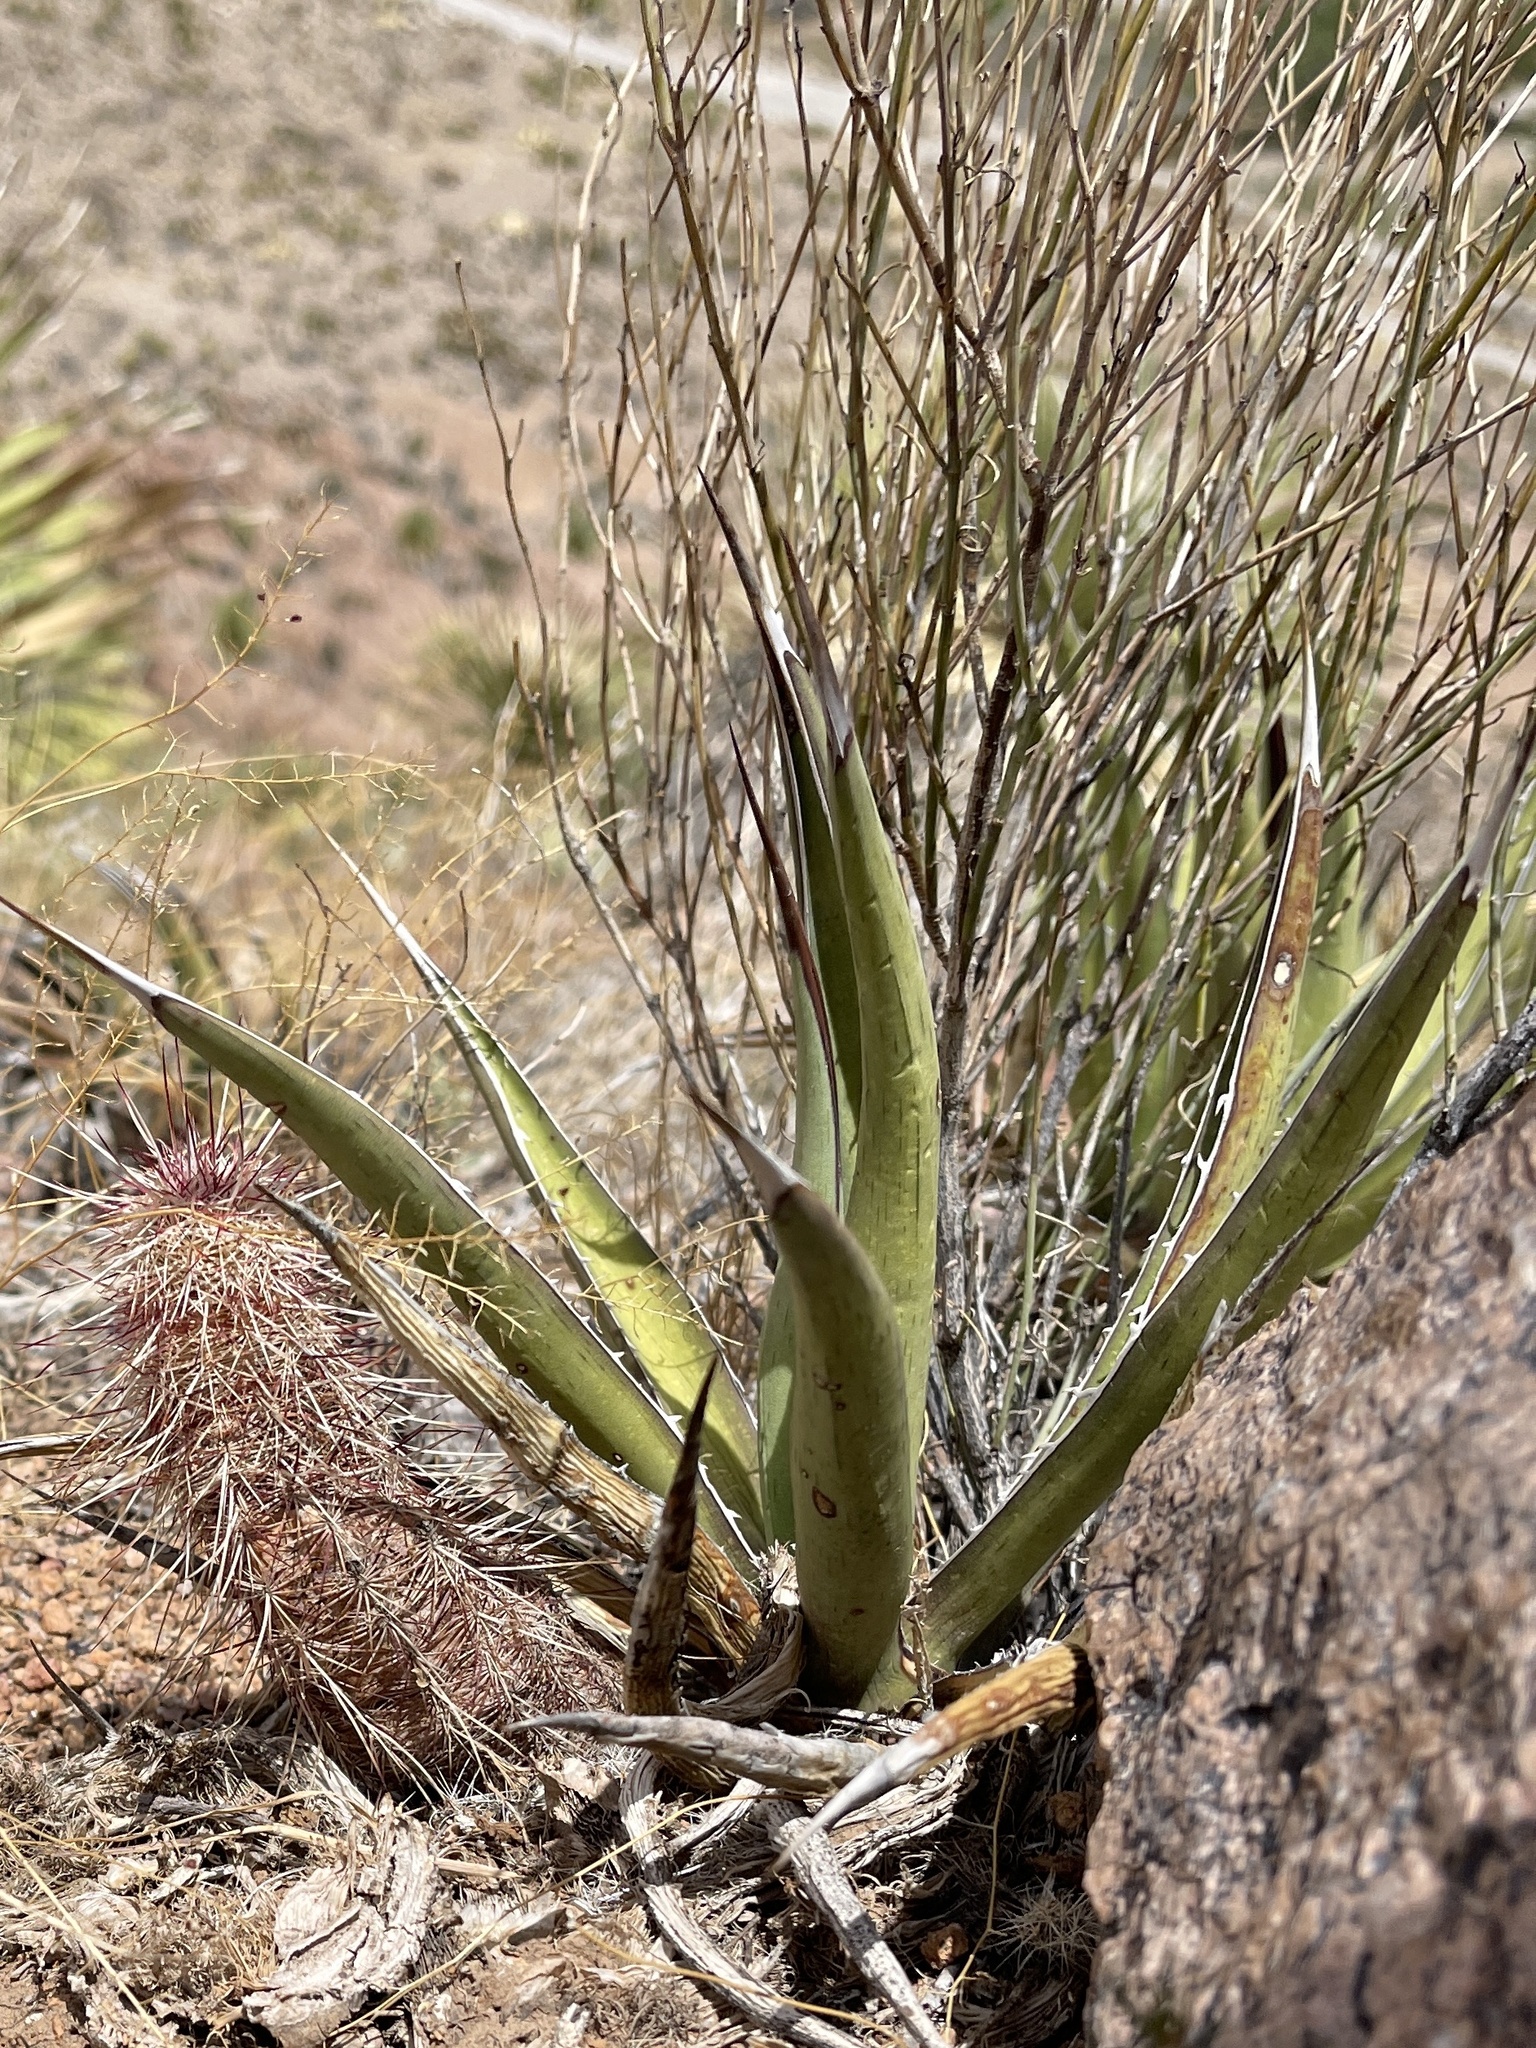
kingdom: Plantae
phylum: Tracheophyta
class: Liliopsida
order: Asparagales
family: Asparagaceae
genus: Agave
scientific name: Agave lechuguilla
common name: Lecheguilla agave
